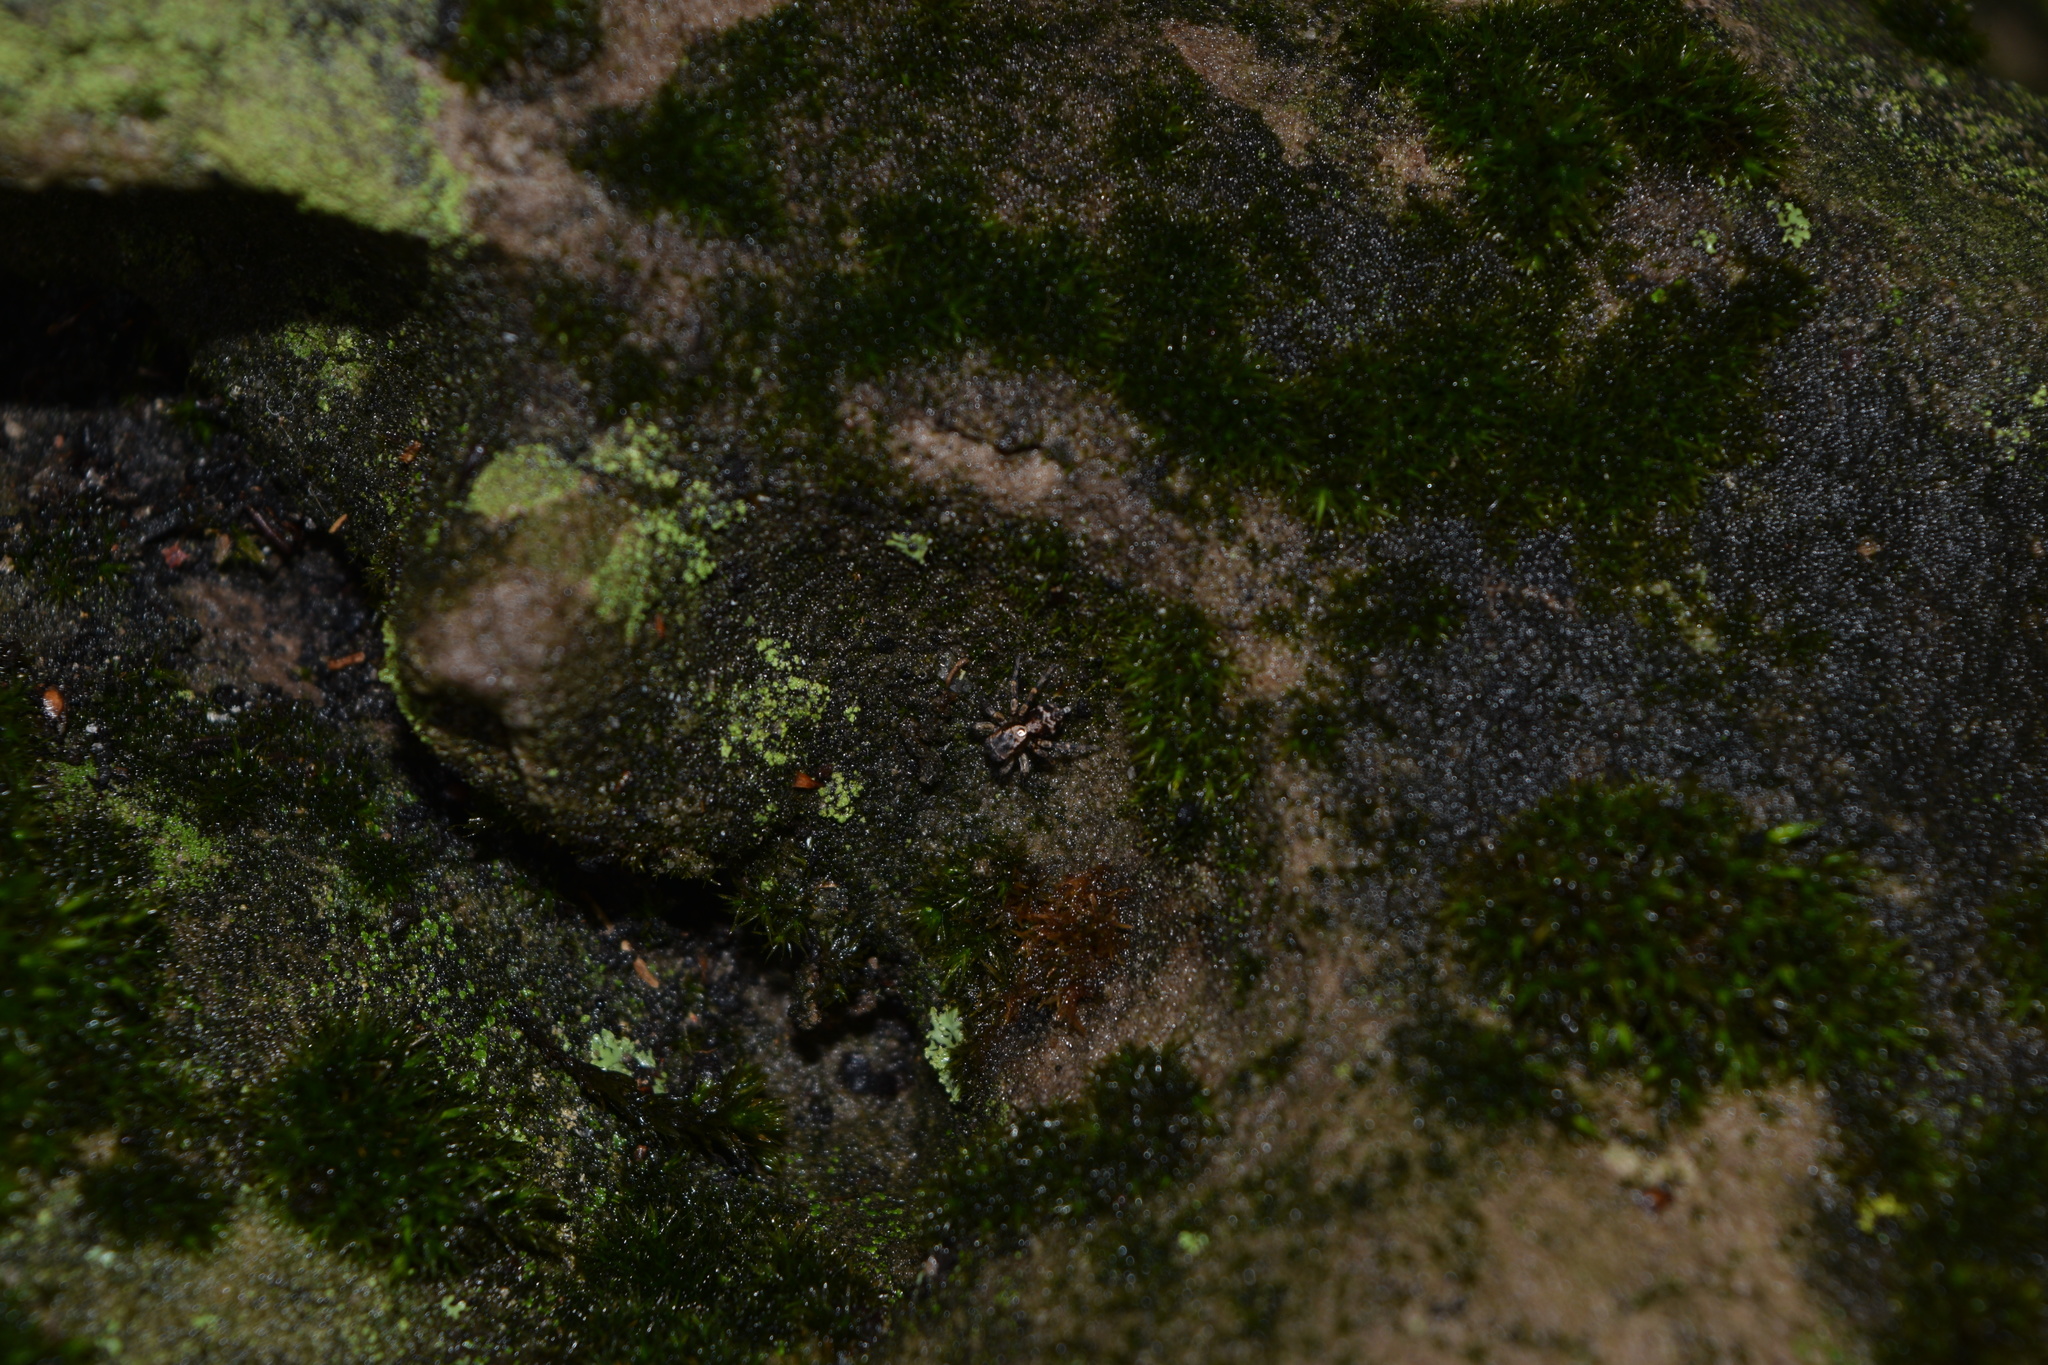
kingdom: Animalia
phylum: Arthropoda
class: Arachnida
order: Araneae
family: Salticidae
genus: Naphrys
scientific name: Naphrys pulex
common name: Flea jumping spider
